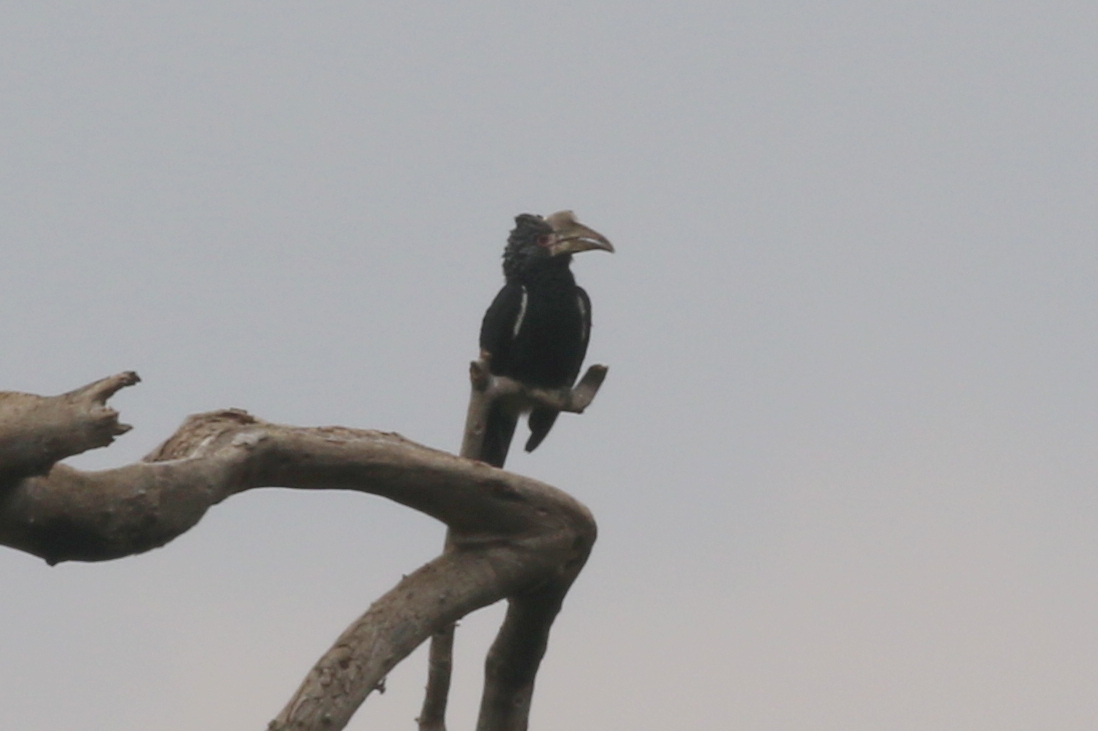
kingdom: Animalia
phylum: Chordata
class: Aves
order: Bucerotiformes
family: Bucerotidae
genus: Bycanistes
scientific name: Bycanistes brevis
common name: Silvery-cheeked hornbill
